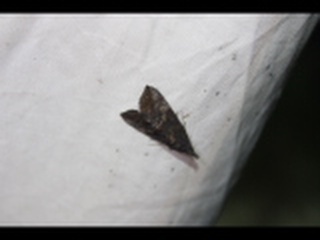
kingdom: Animalia
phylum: Arthropoda
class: Insecta
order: Lepidoptera
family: Erebidae
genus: Hypena
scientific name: Hypena scabra
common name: Green cloverworm
